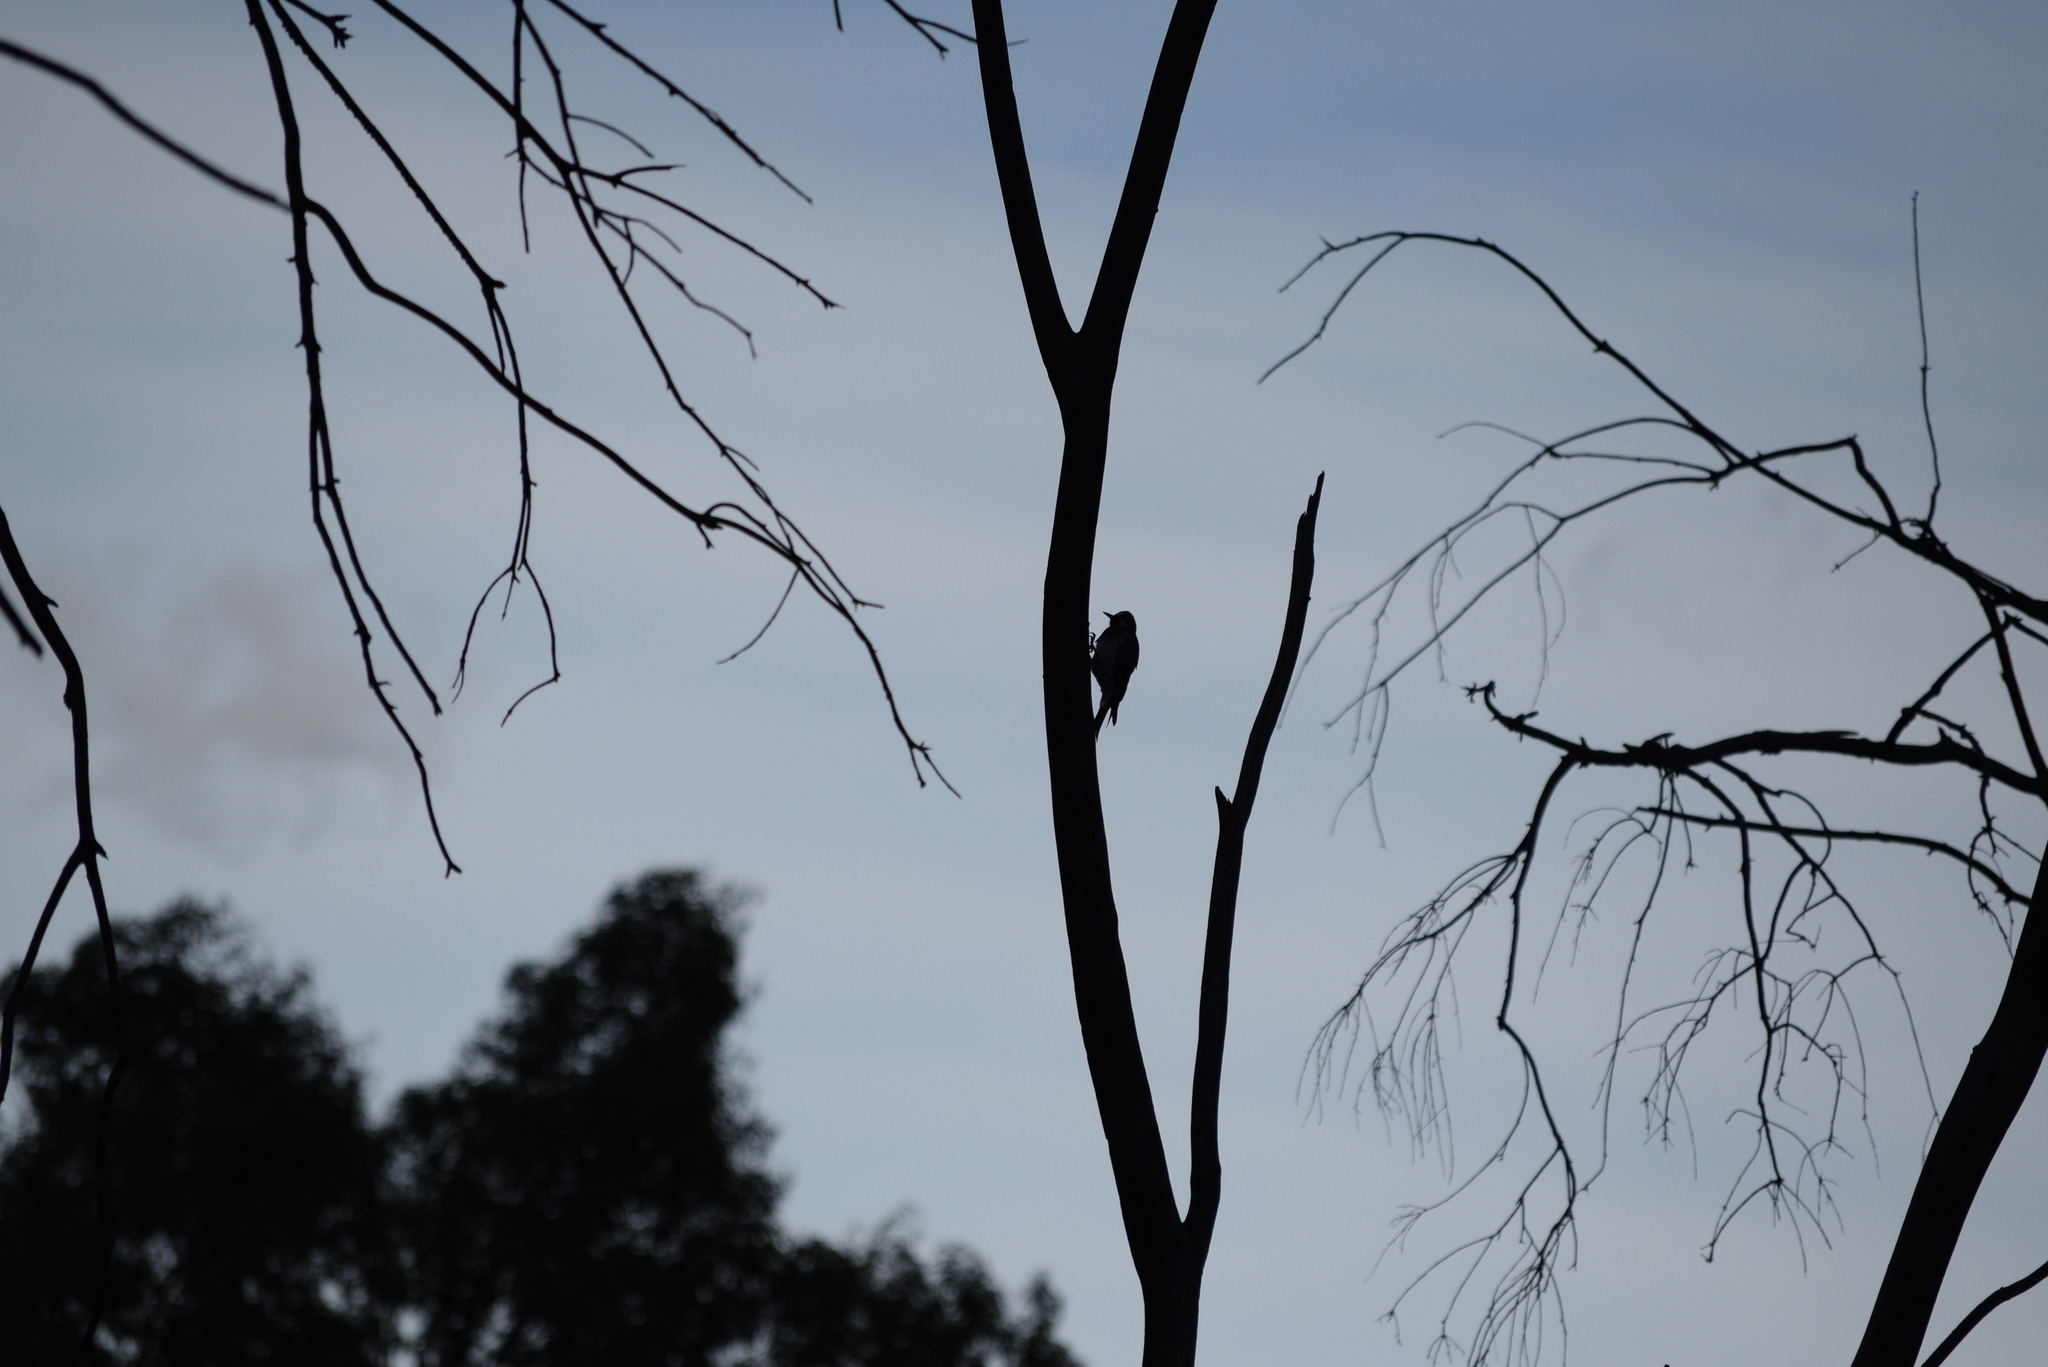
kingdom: Animalia
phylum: Chordata
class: Aves
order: Piciformes
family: Picidae
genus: Melanerpes
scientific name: Melanerpes formicivorus
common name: Acorn woodpecker
